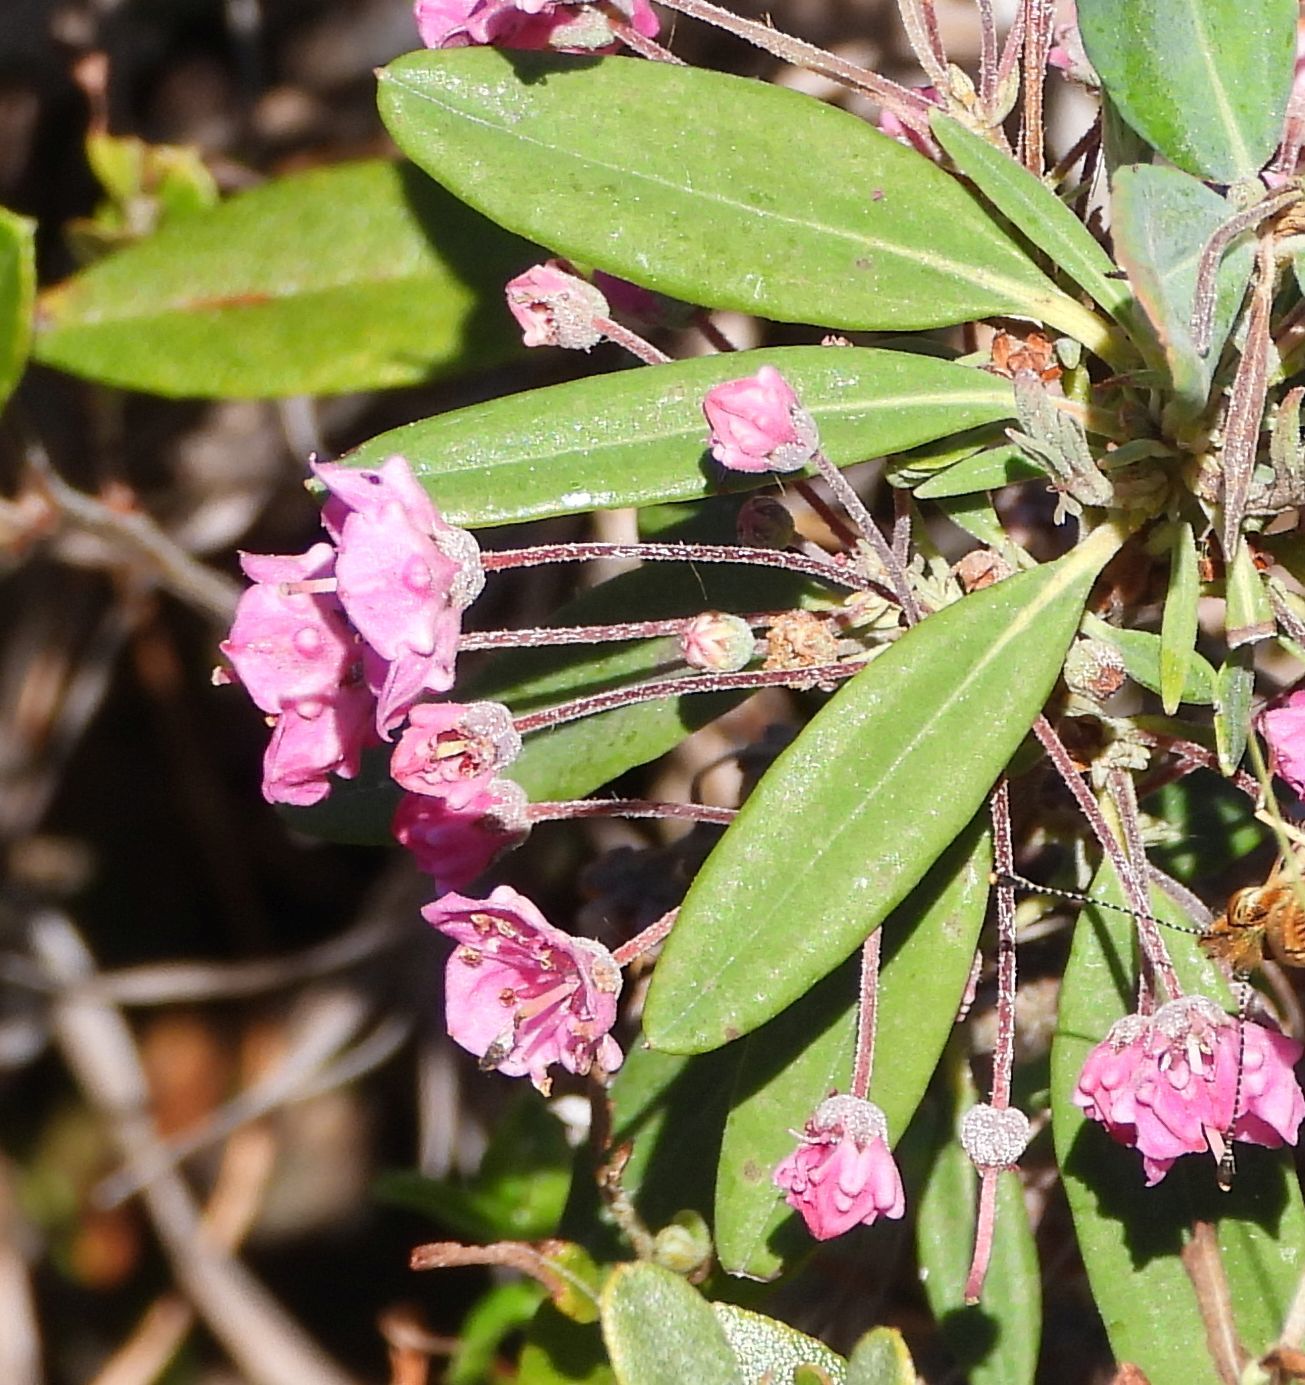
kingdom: Plantae
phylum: Tracheophyta
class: Magnoliopsida
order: Ericales
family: Ericaceae
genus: Kalmia
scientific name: Kalmia angustifolia
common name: Sheep-laurel
